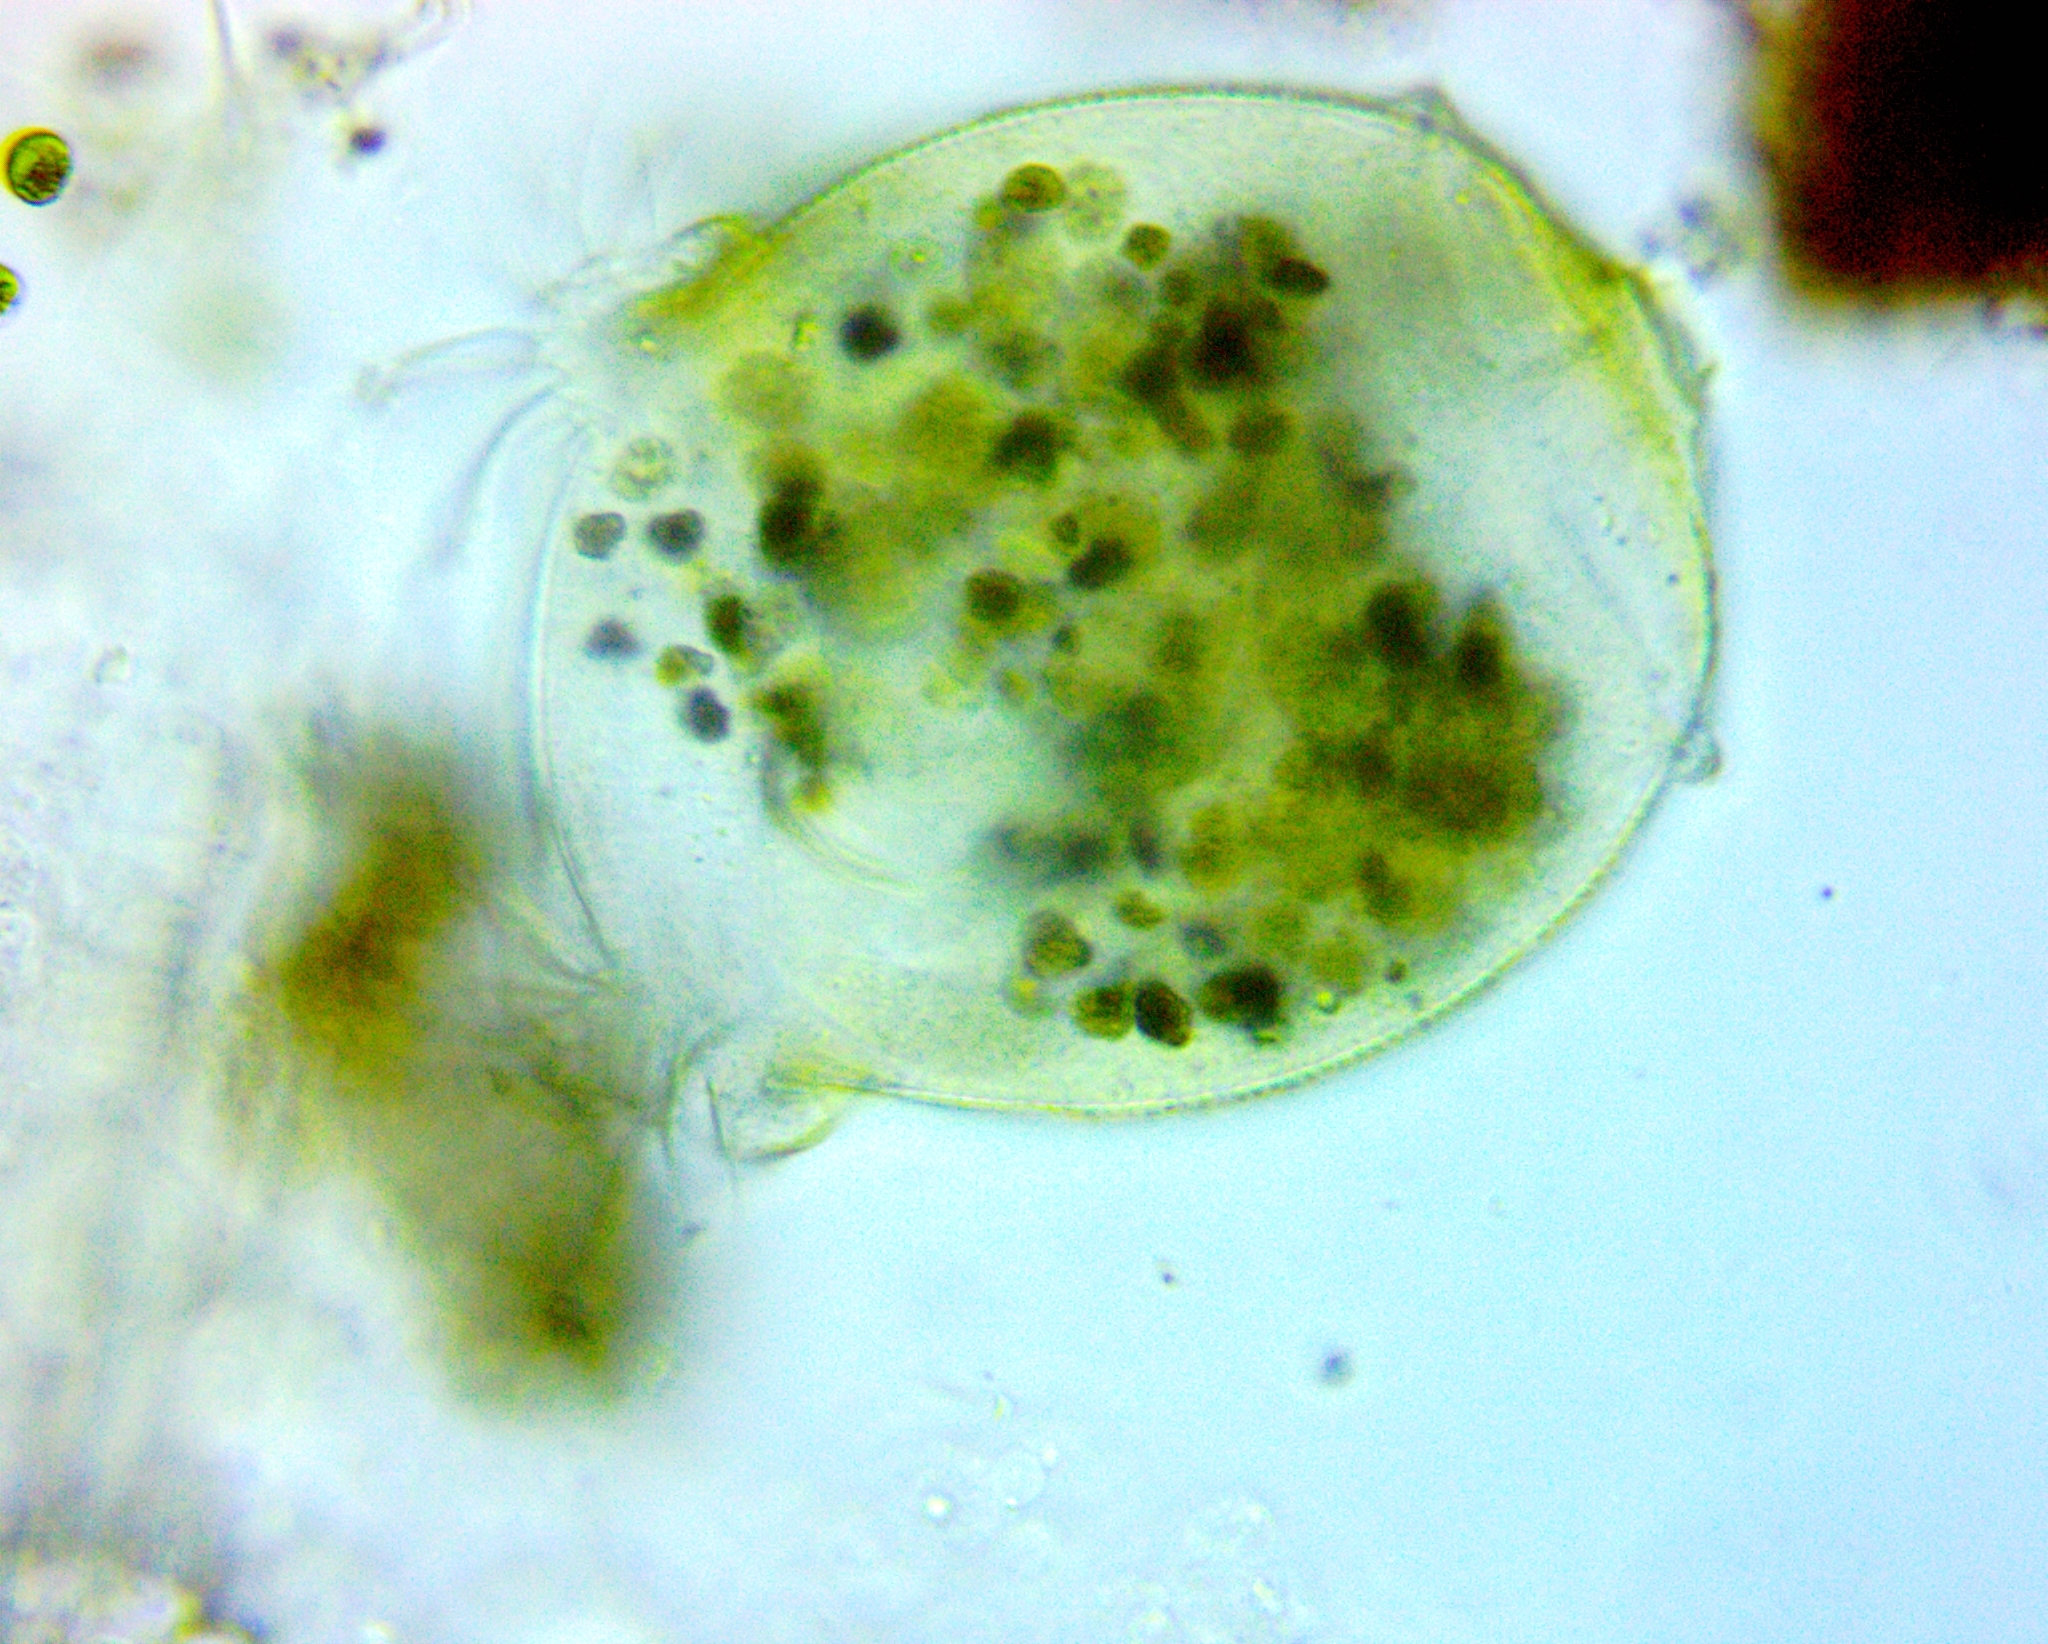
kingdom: Chromista
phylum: Ciliophora
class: Oligohymenophorea
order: Peritrichida
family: Epistylididae
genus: Campanella
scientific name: Campanella umbellaria
